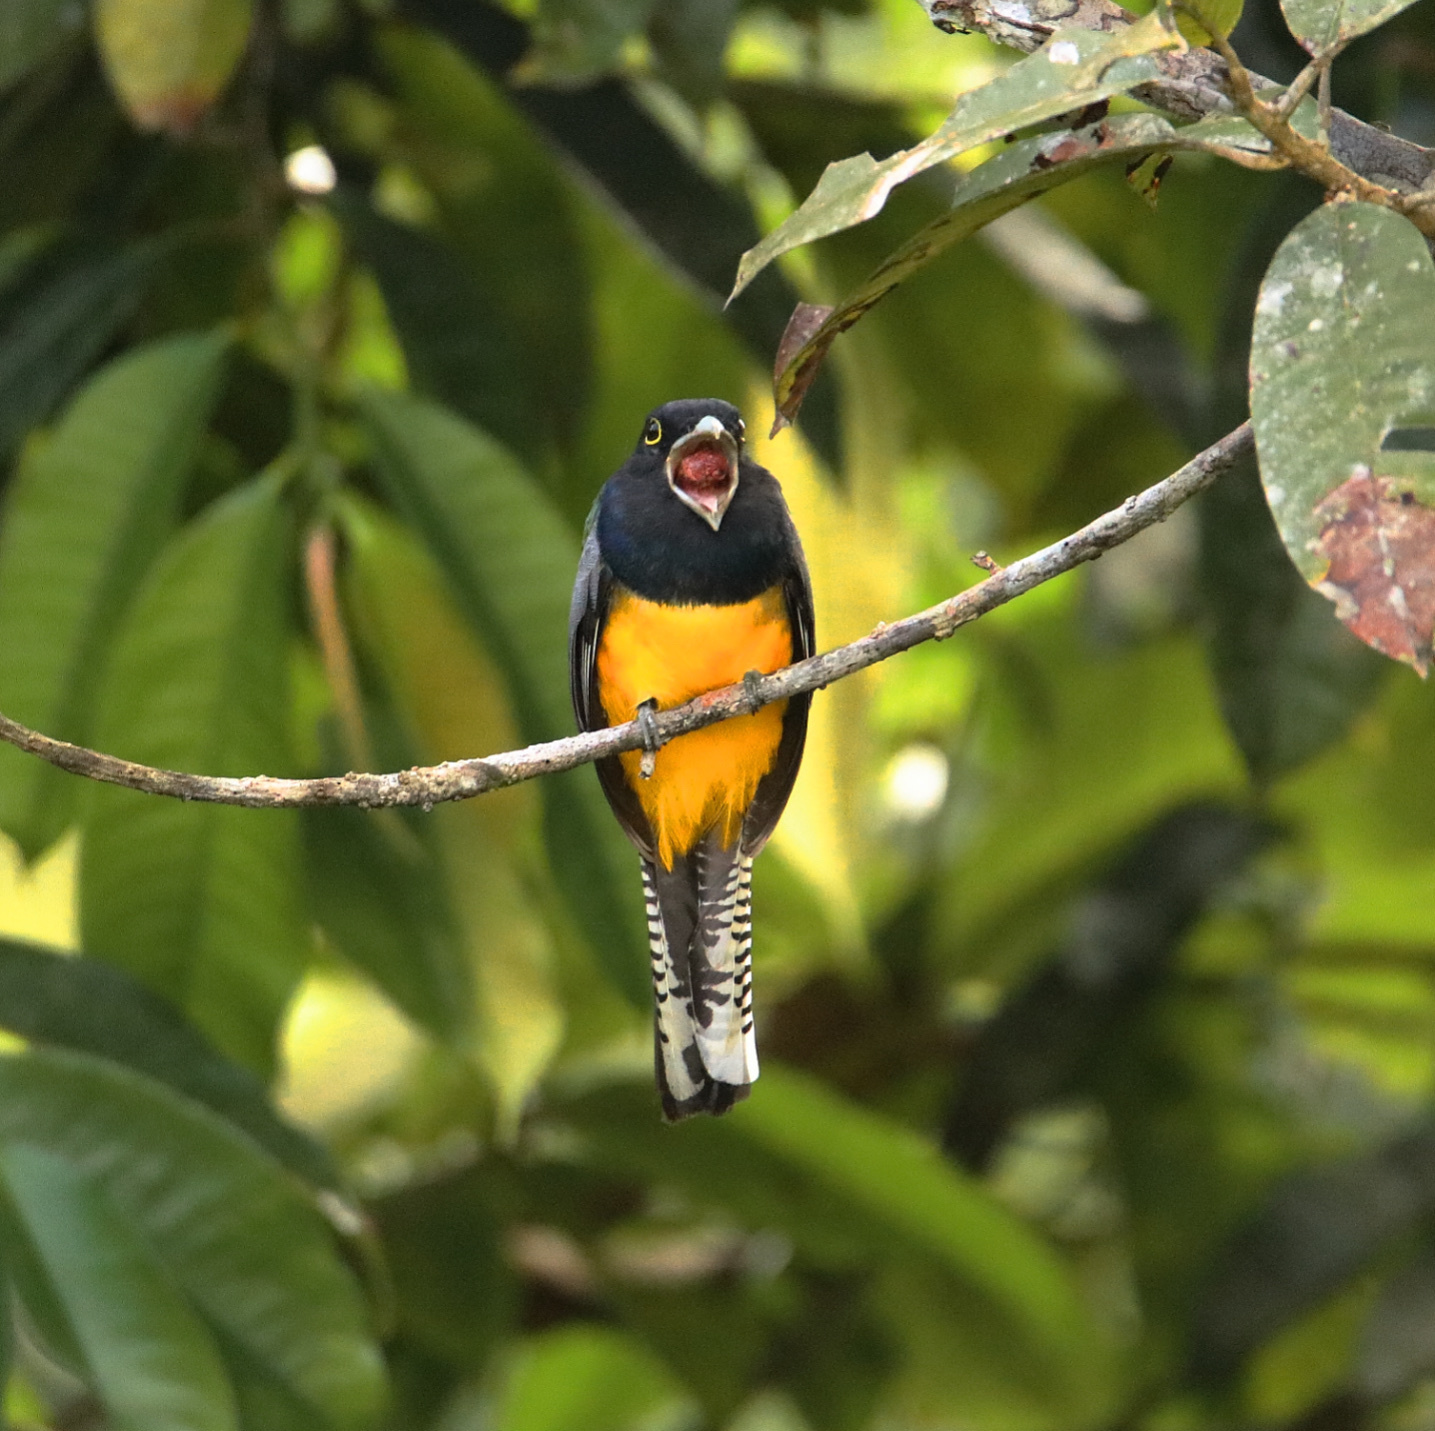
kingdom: Animalia
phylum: Chordata
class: Aves
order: Trogoniformes
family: Trogonidae
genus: Trogon
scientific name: Trogon caligatus
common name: Gartered trogon
